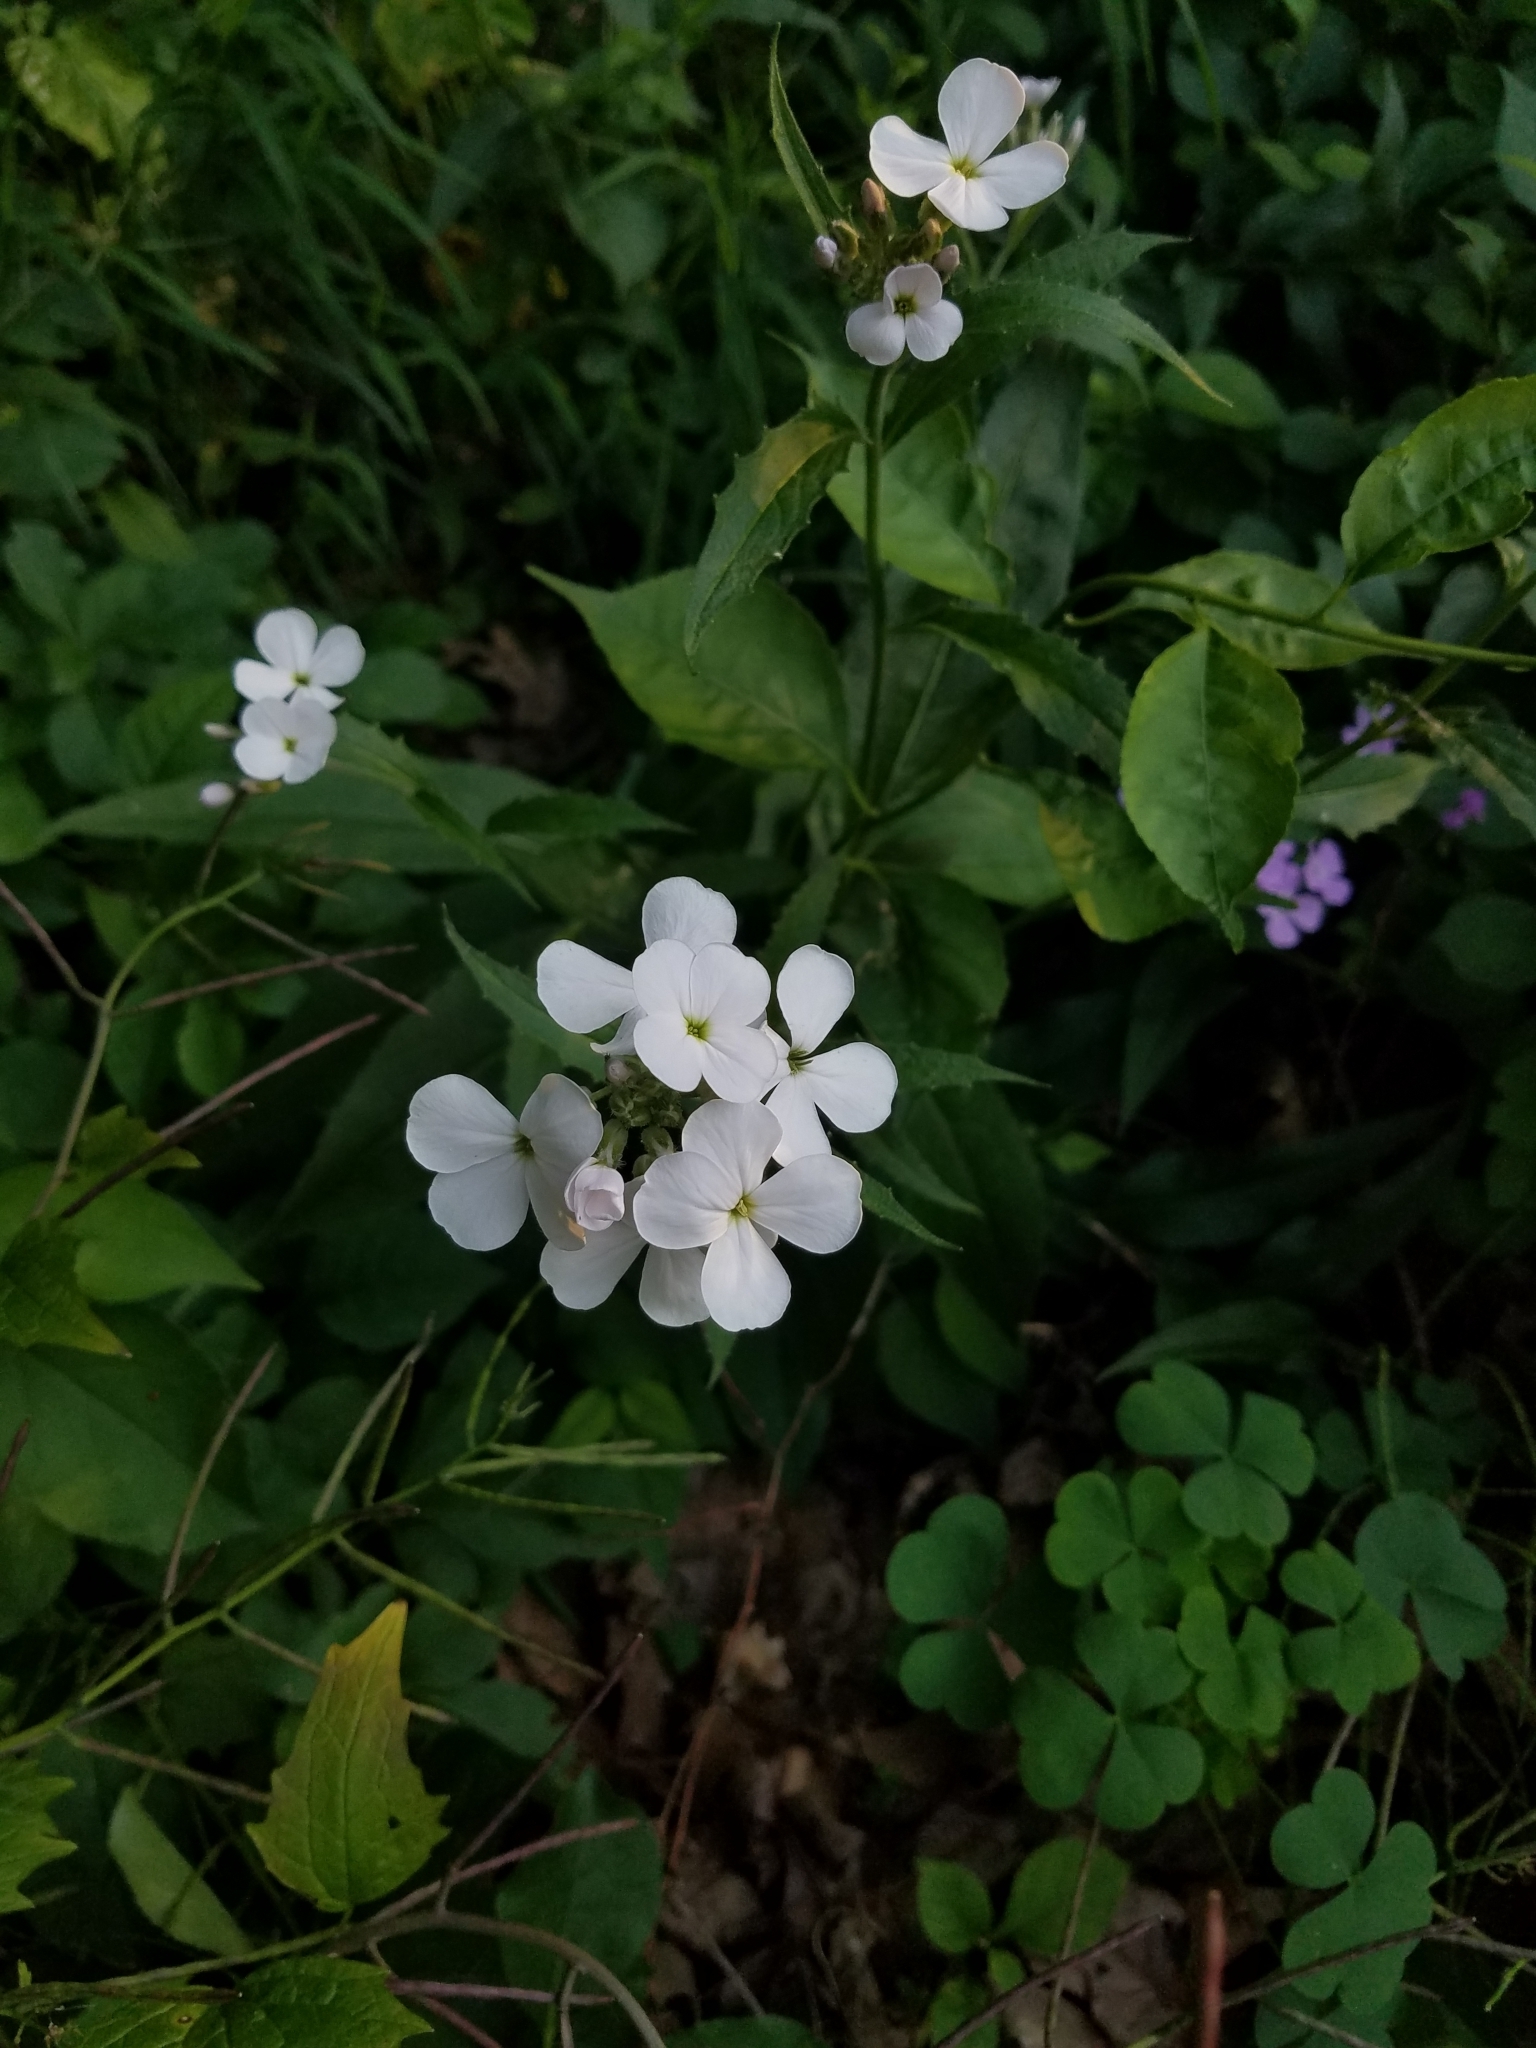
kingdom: Plantae
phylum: Tracheophyta
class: Magnoliopsida
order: Brassicales
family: Brassicaceae
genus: Hesperis
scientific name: Hesperis matronalis
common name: Dame's-violet
